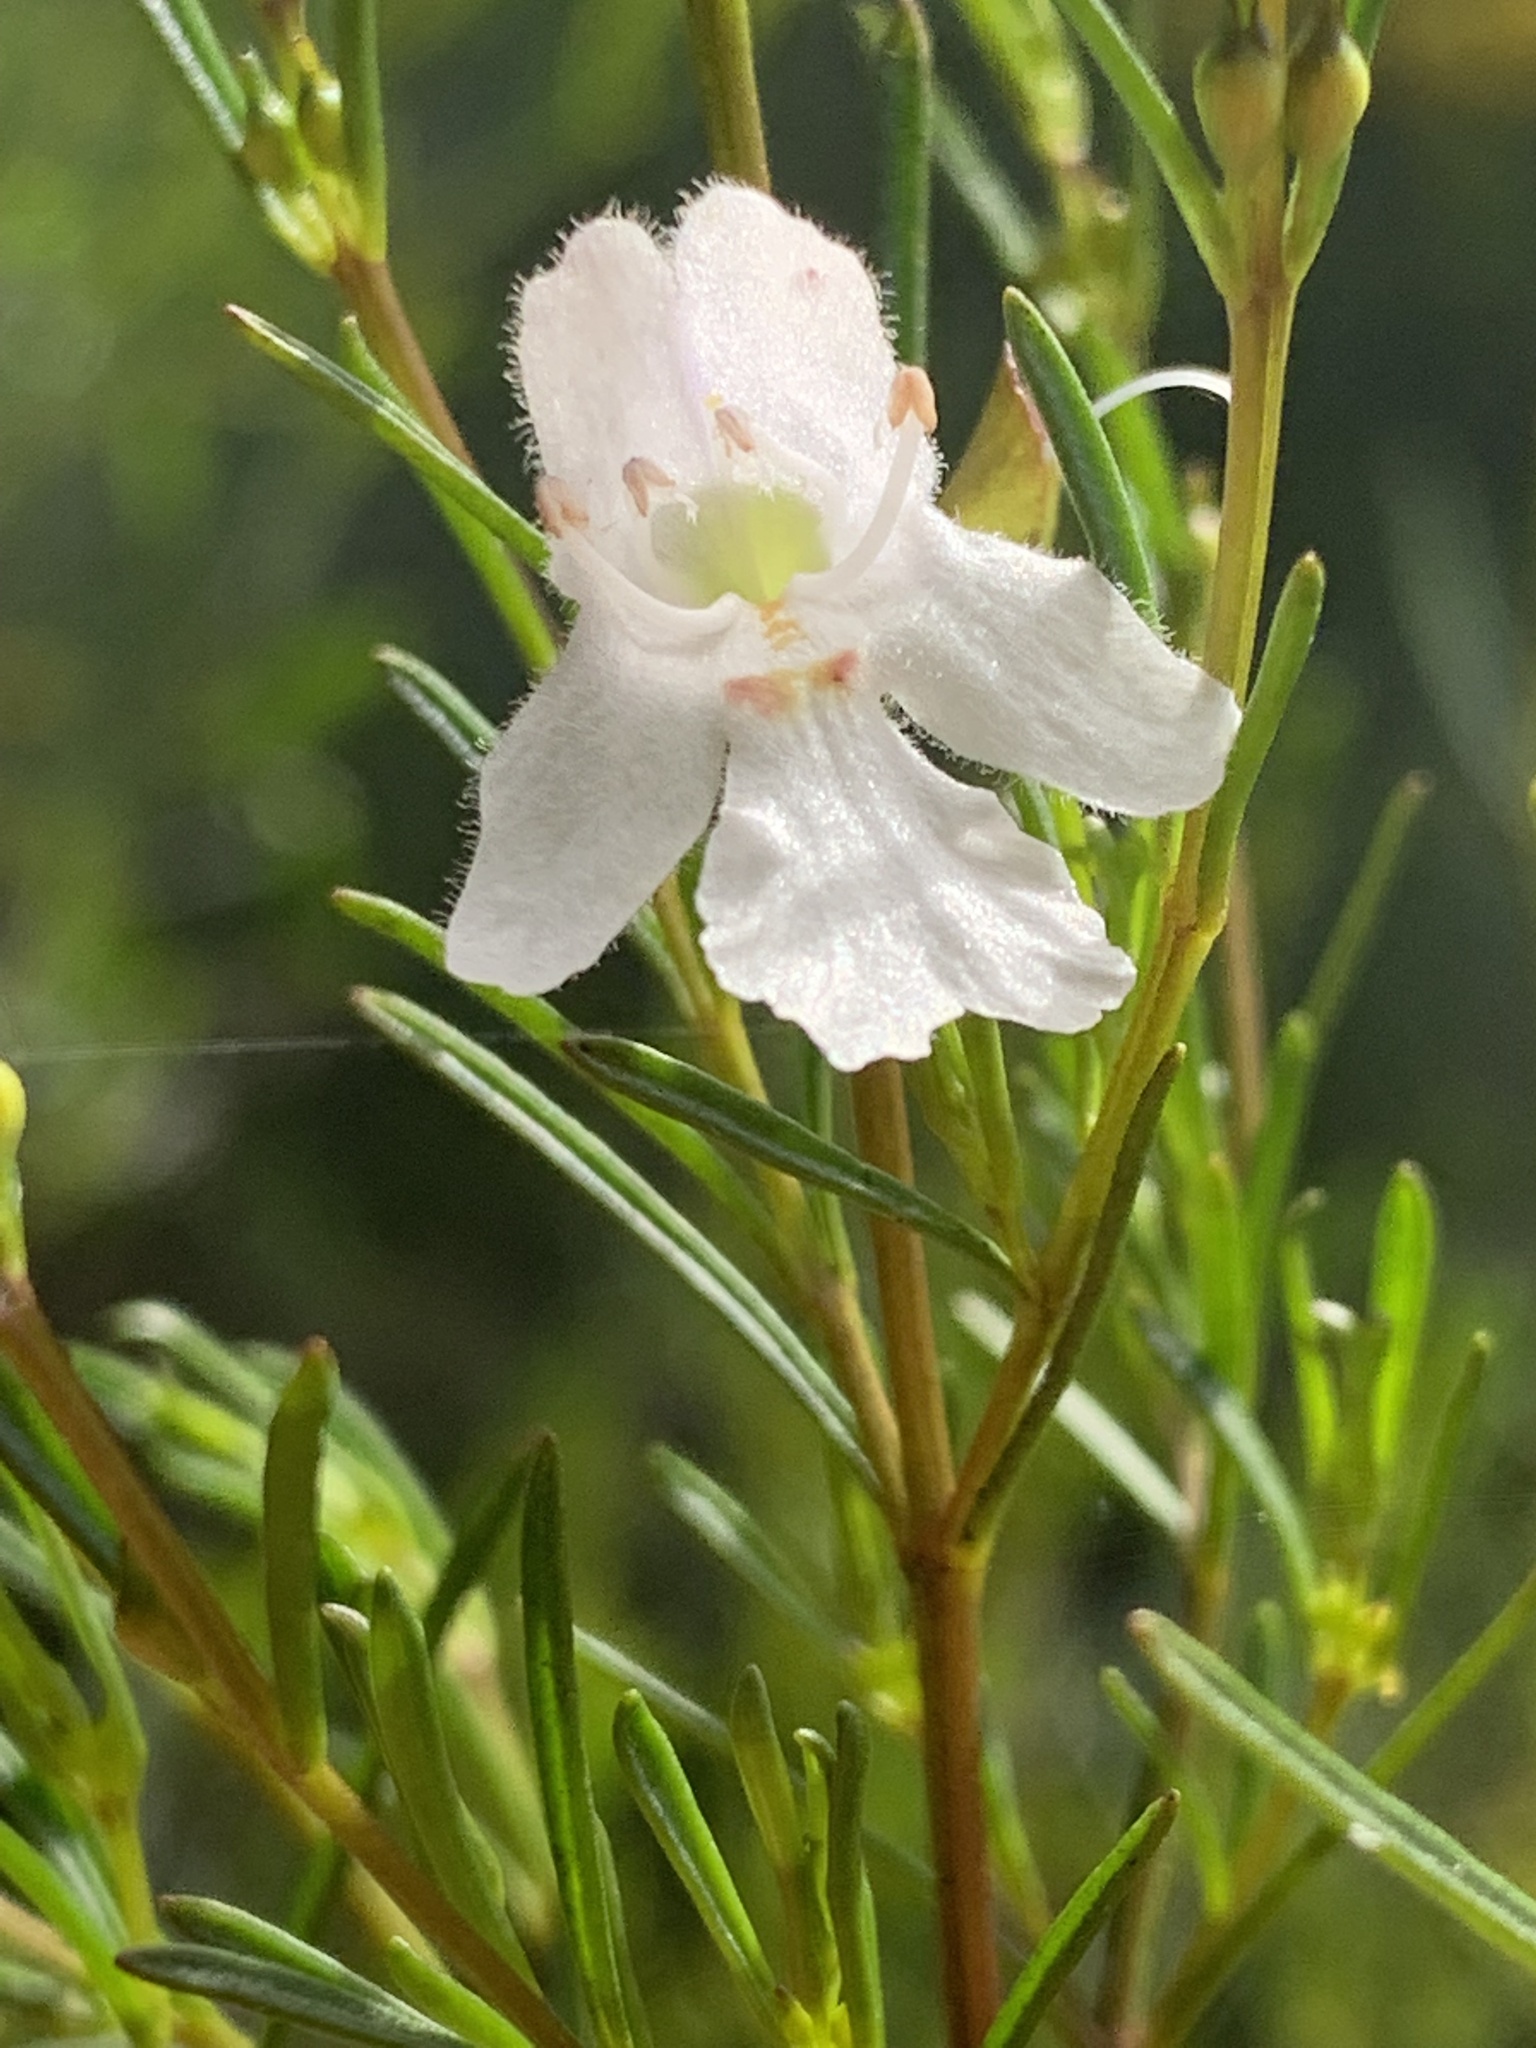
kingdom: Plantae
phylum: Tracheophyta
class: Magnoliopsida
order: Lamiales
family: Lamiaceae
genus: Prostanthera
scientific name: Prostanthera nivea
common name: Snowy mintbush
